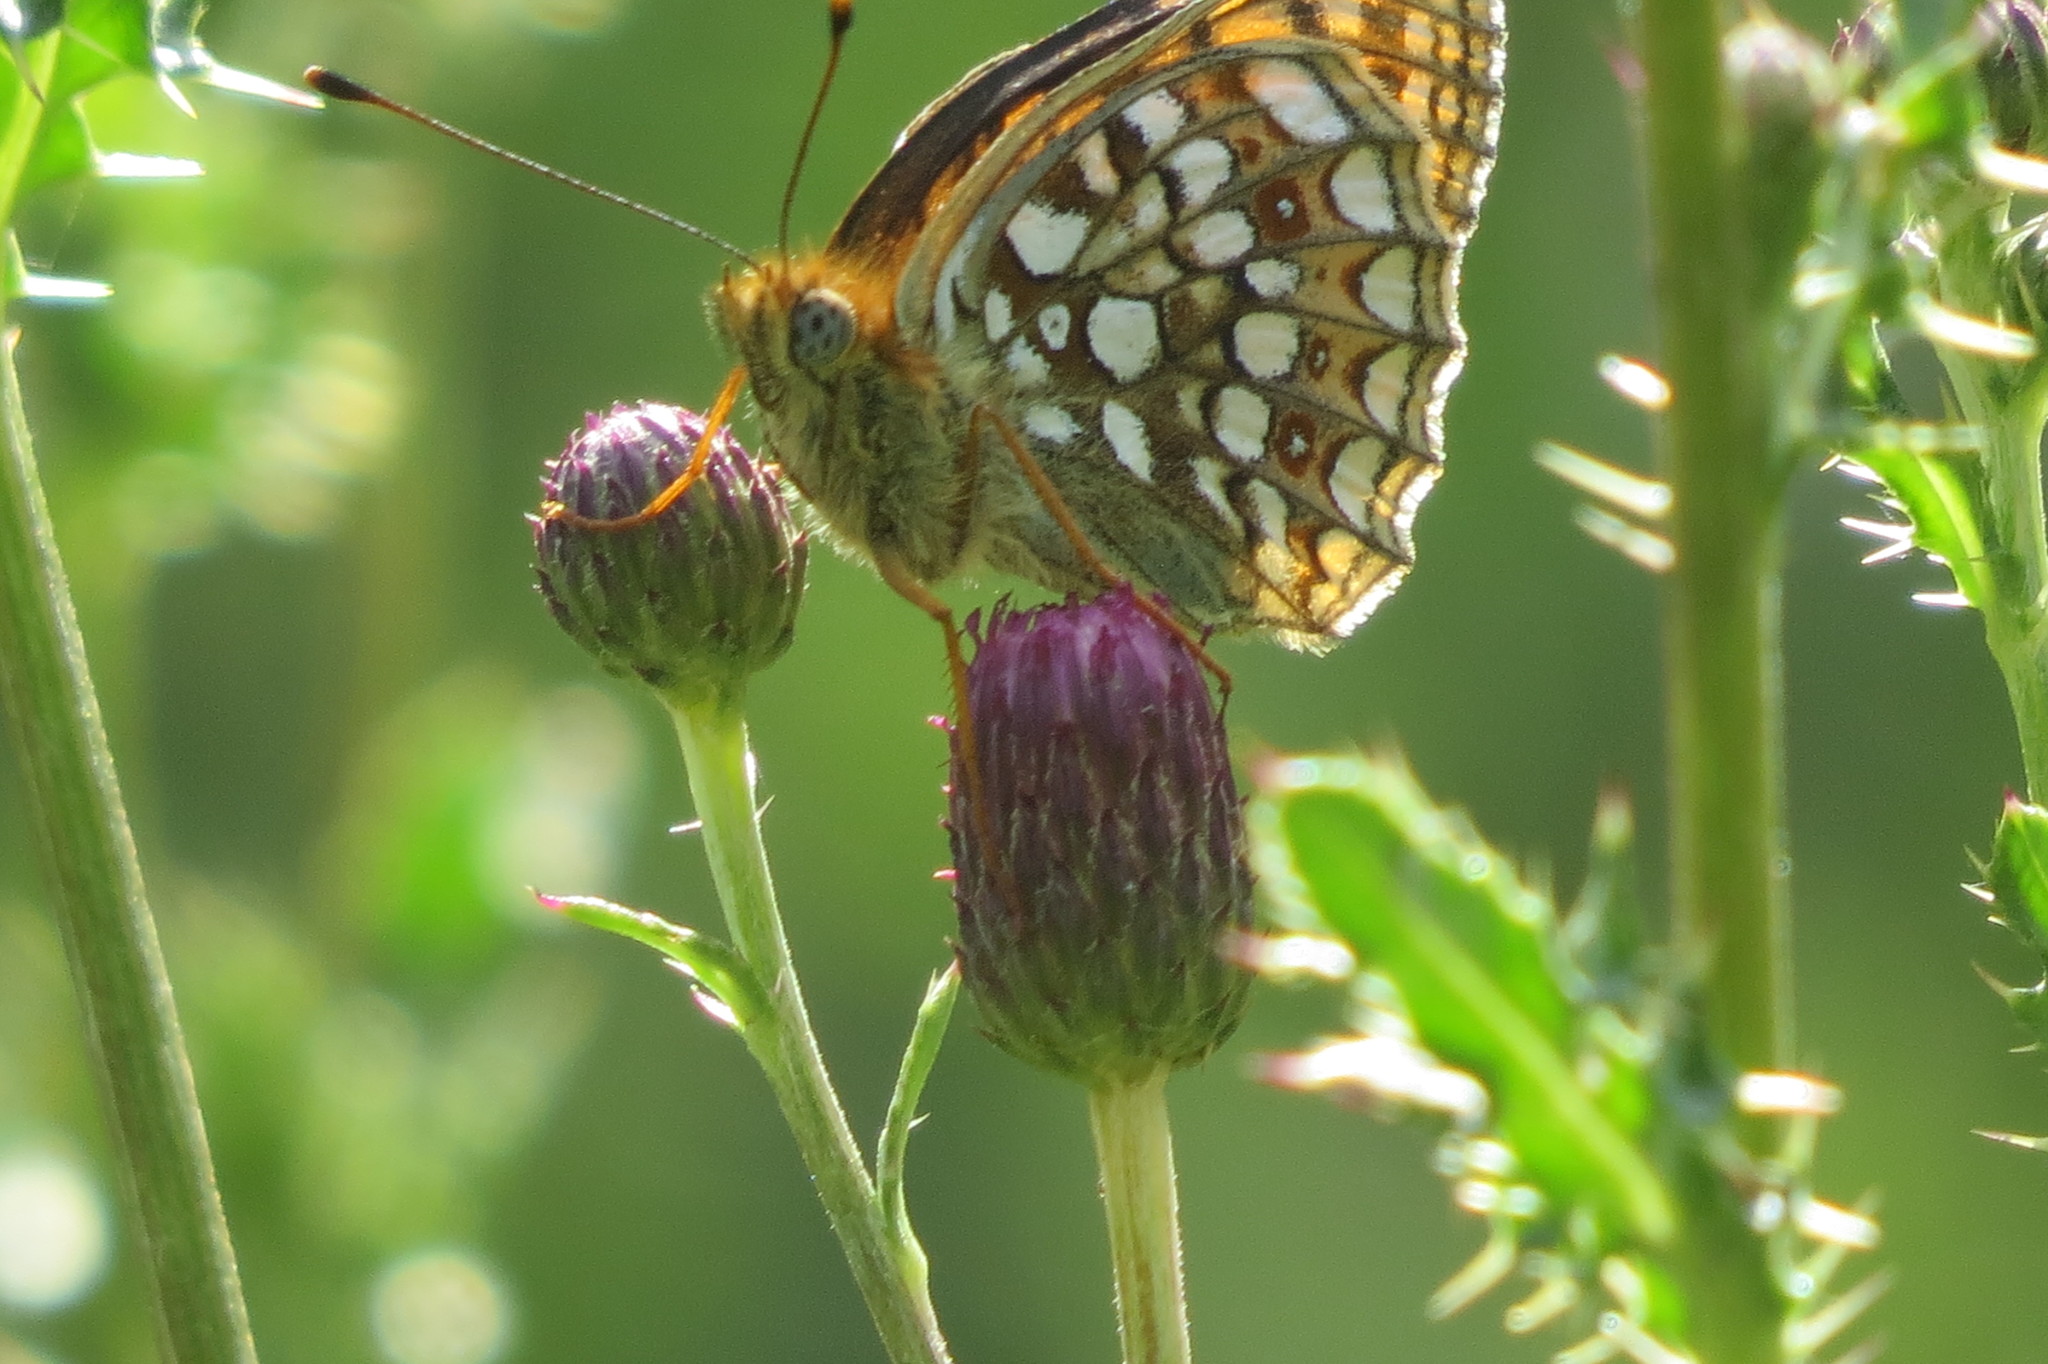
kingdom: Animalia
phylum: Arthropoda
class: Insecta
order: Lepidoptera
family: Nymphalidae
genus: Fabriciana
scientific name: Fabriciana niobe
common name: Niobe fritillary
